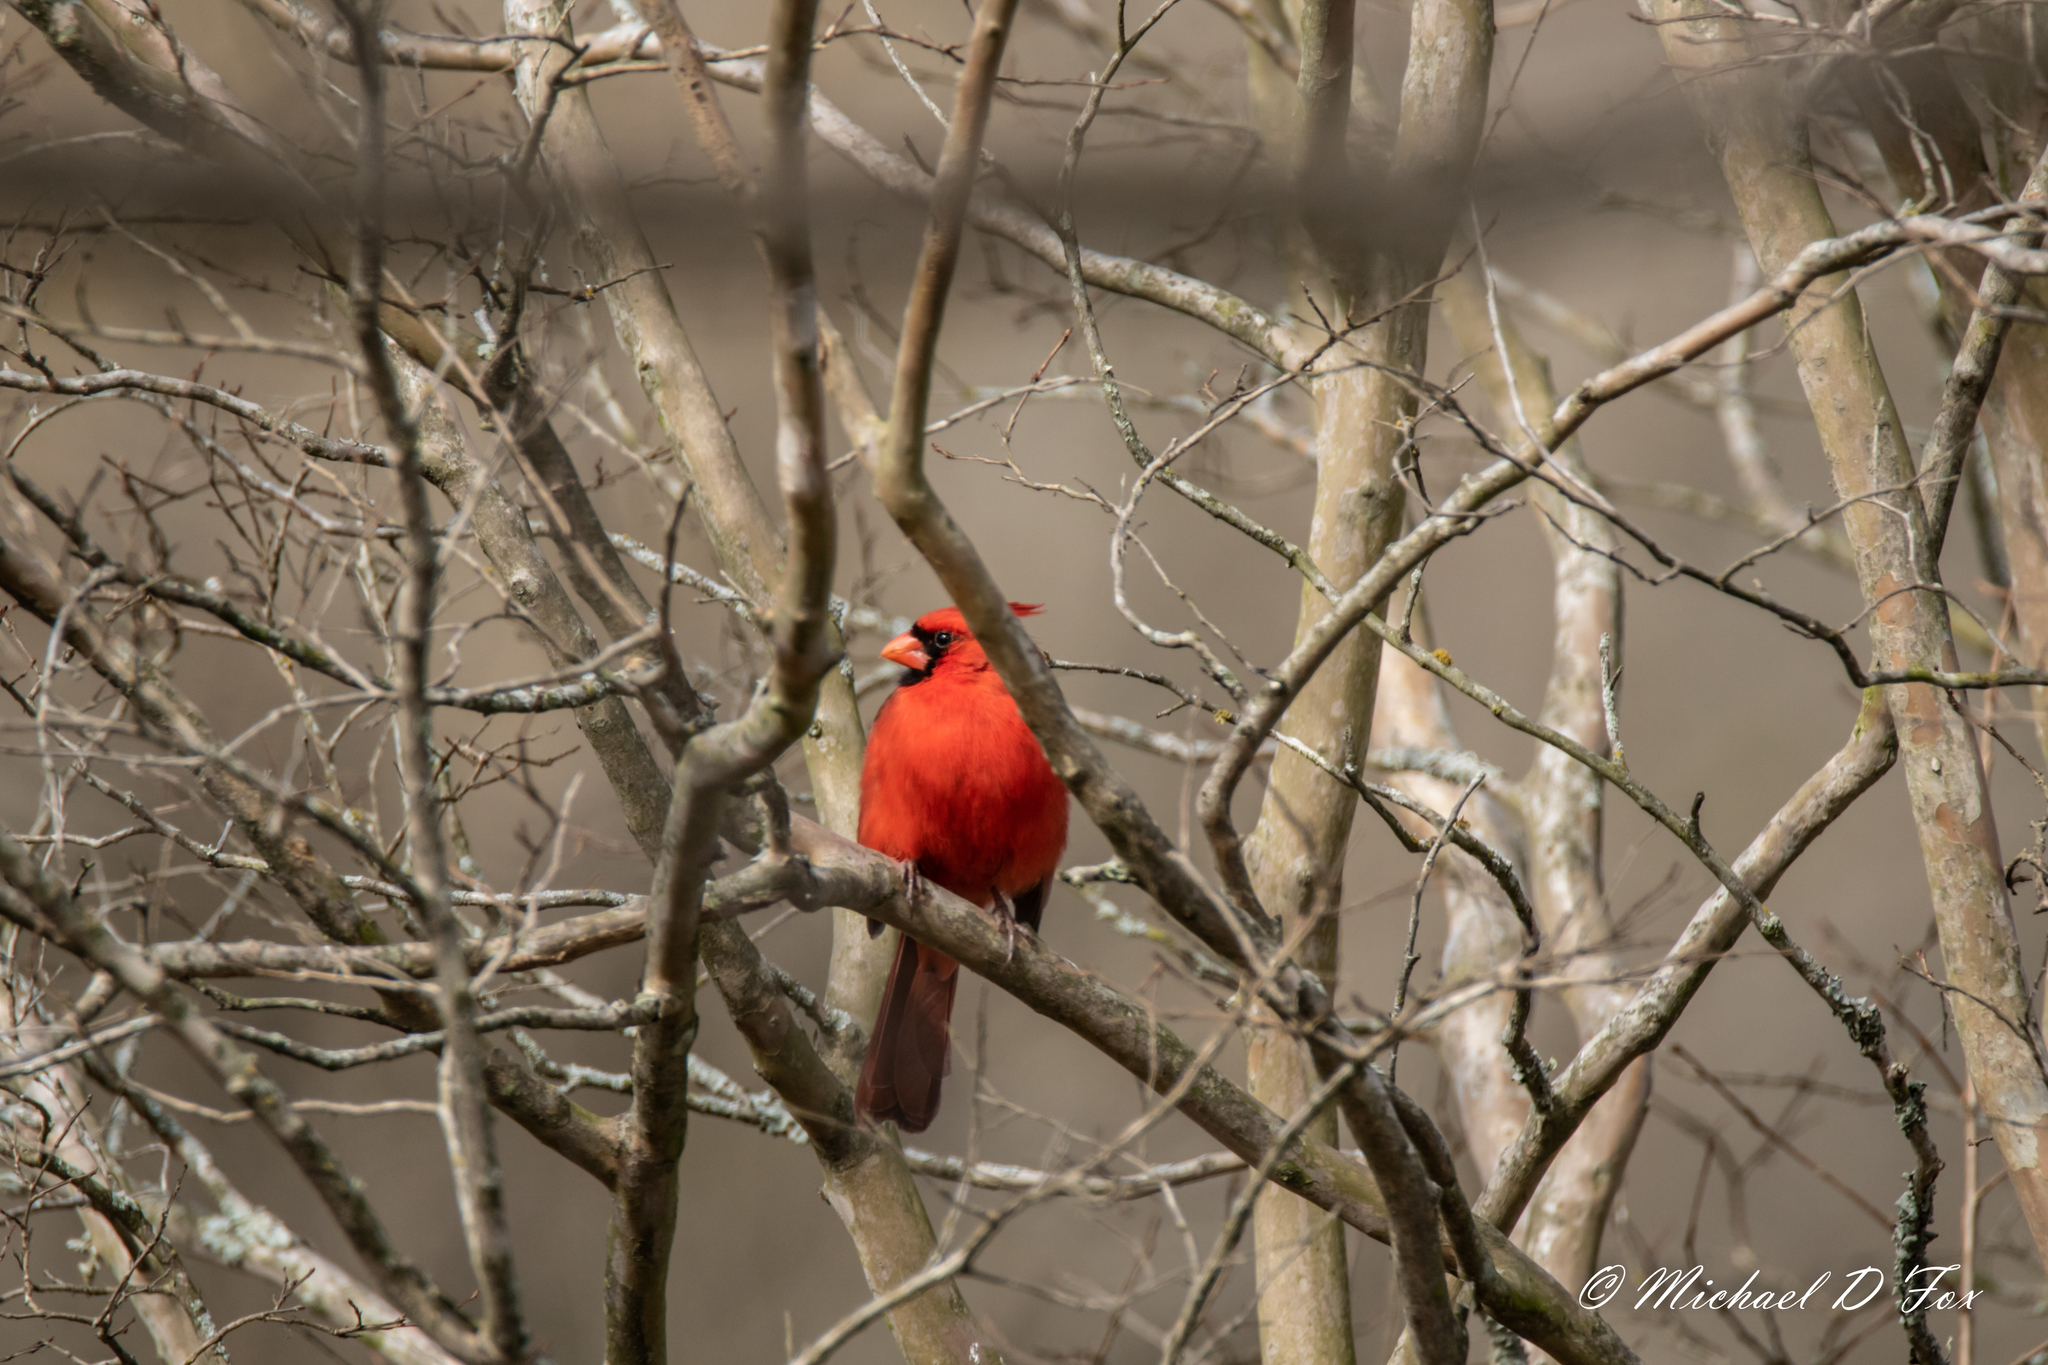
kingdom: Animalia
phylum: Chordata
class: Aves
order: Passeriformes
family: Cardinalidae
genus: Cardinalis
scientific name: Cardinalis cardinalis
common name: Northern cardinal
